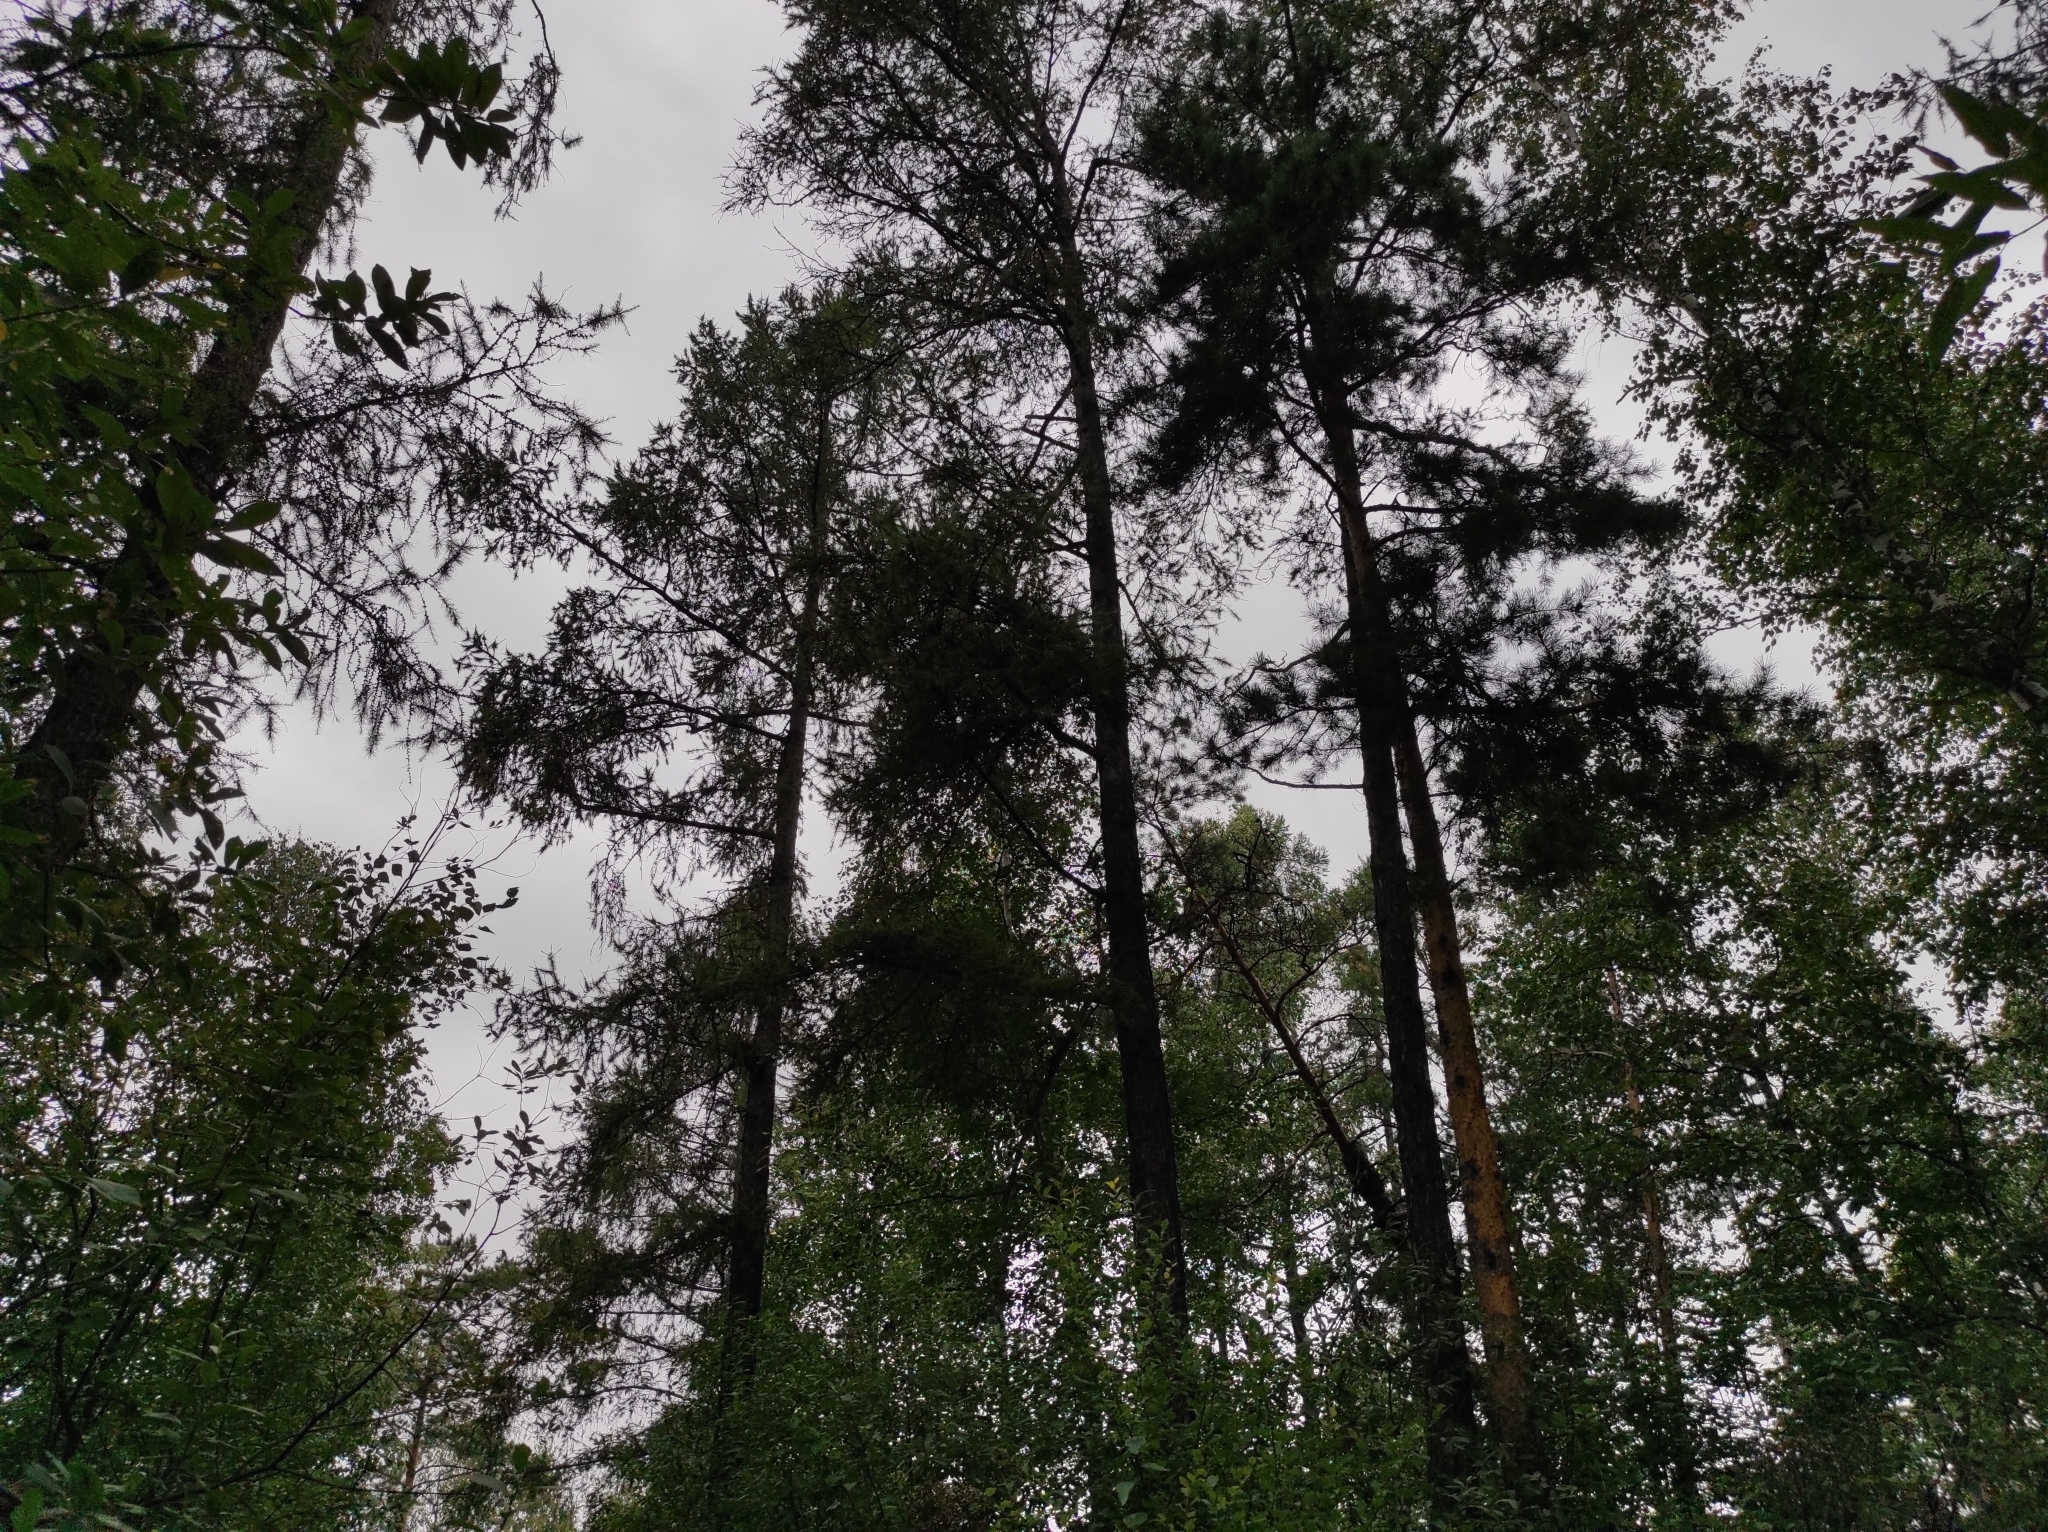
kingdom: Plantae
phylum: Tracheophyta
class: Pinopsida
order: Pinales
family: Pinaceae
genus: Pinus
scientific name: Pinus sylvestris
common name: Scots pine
